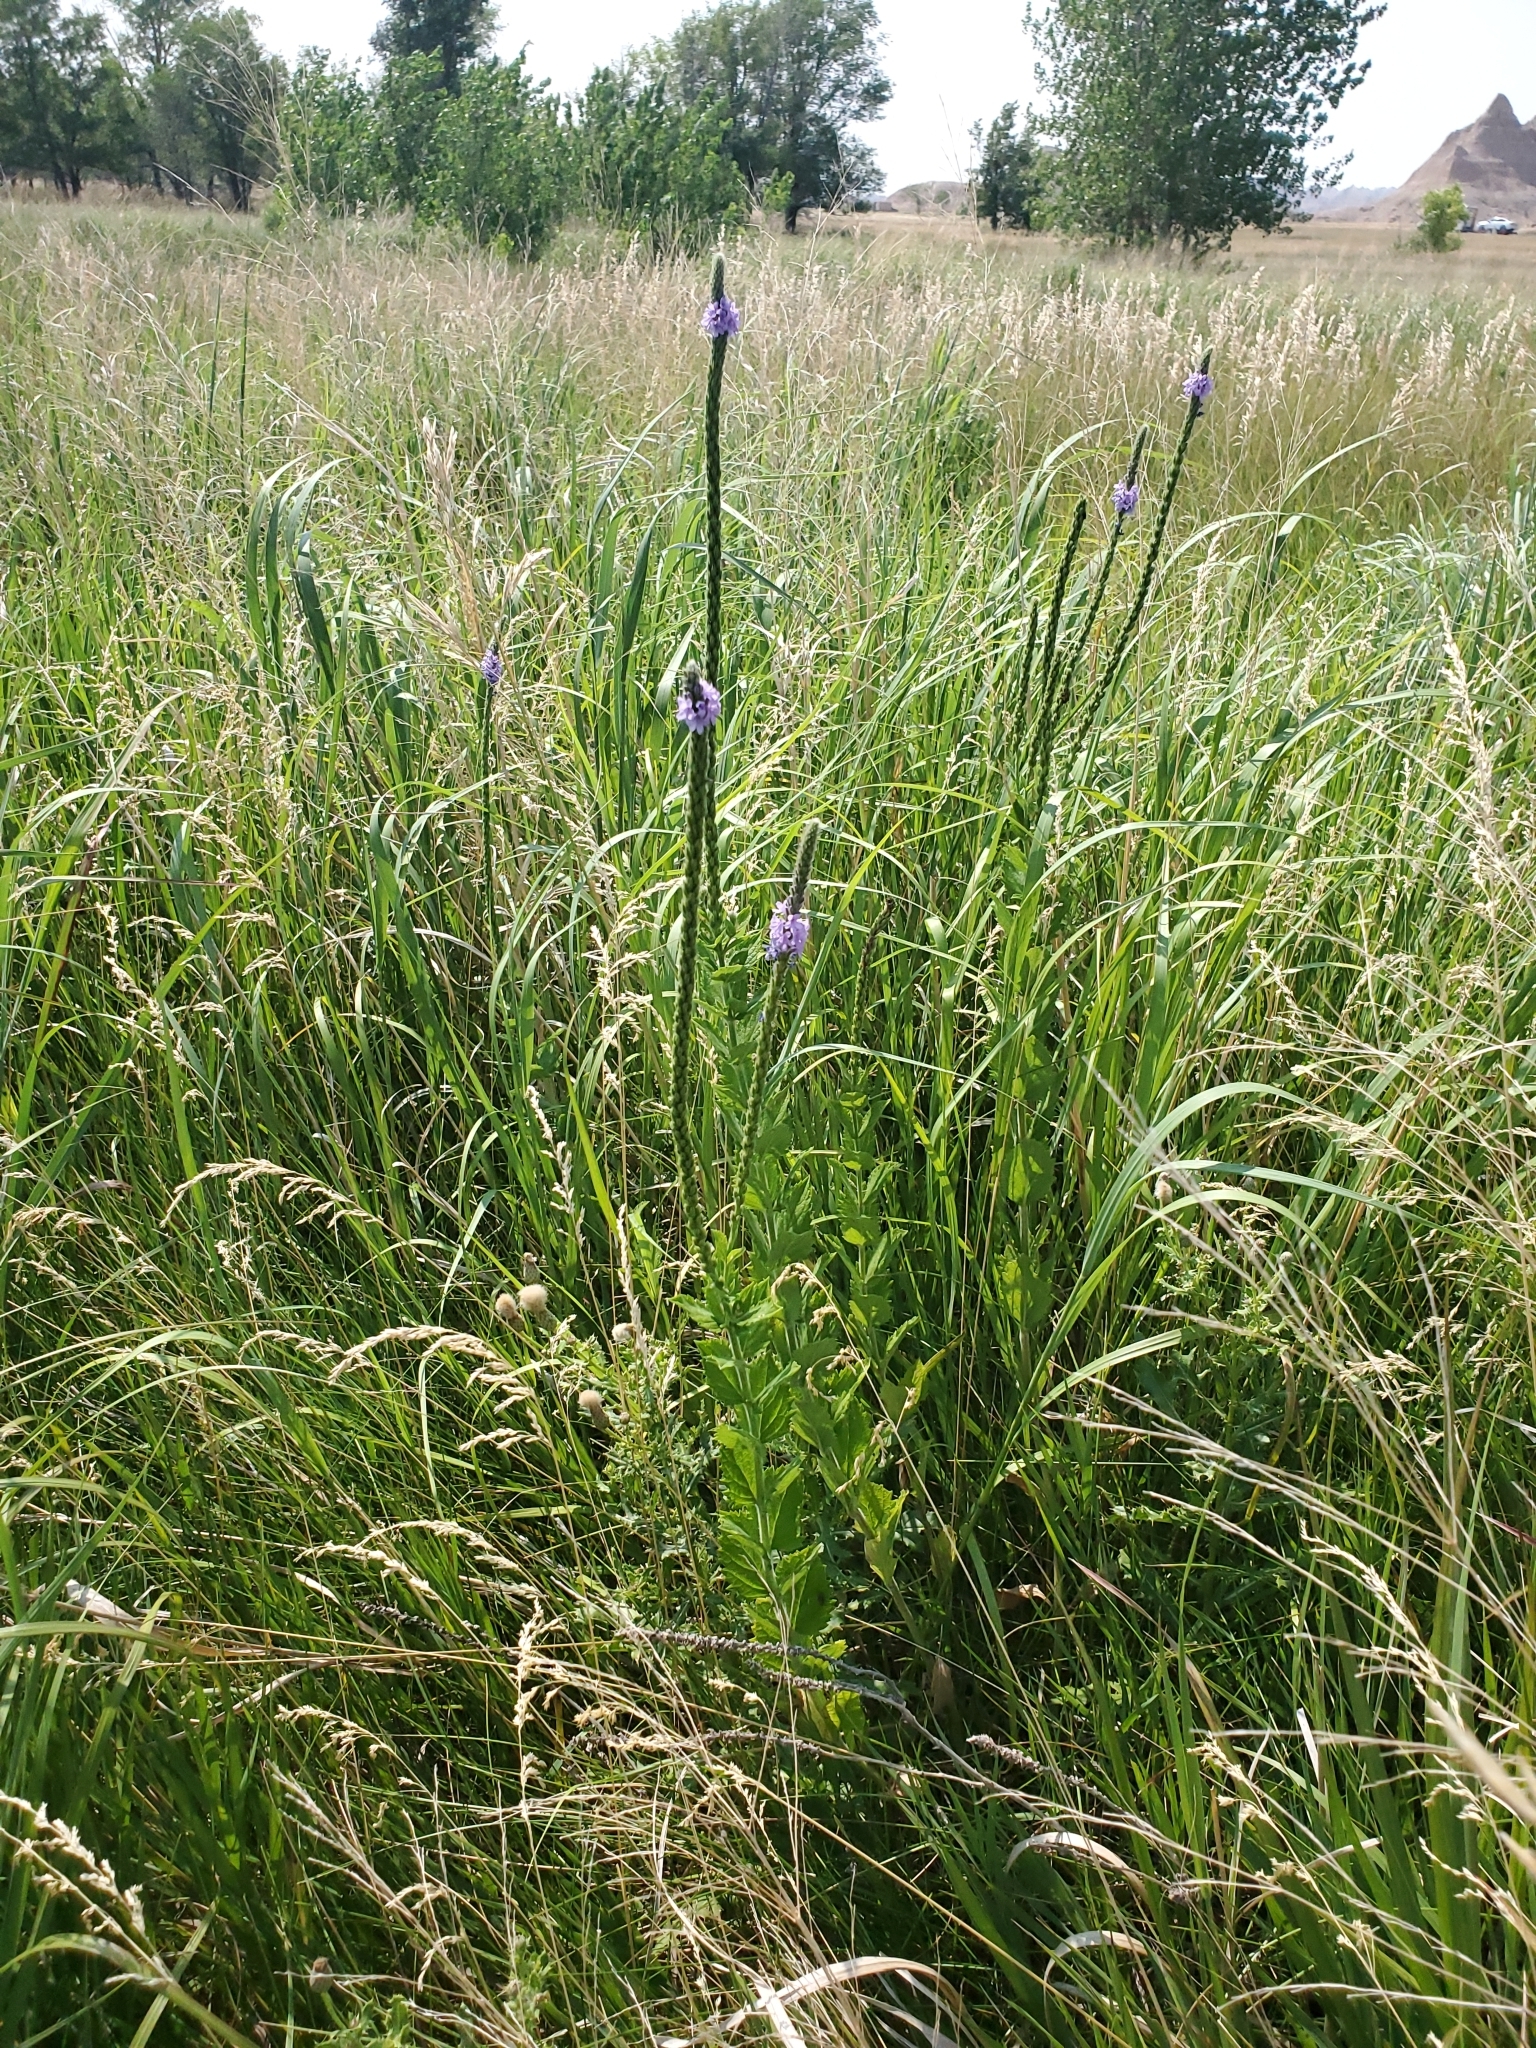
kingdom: Plantae
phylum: Tracheophyta
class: Magnoliopsida
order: Lamiales
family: Verbenaceae
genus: Verbena
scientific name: Verbena stricta
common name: Hoary vervain
